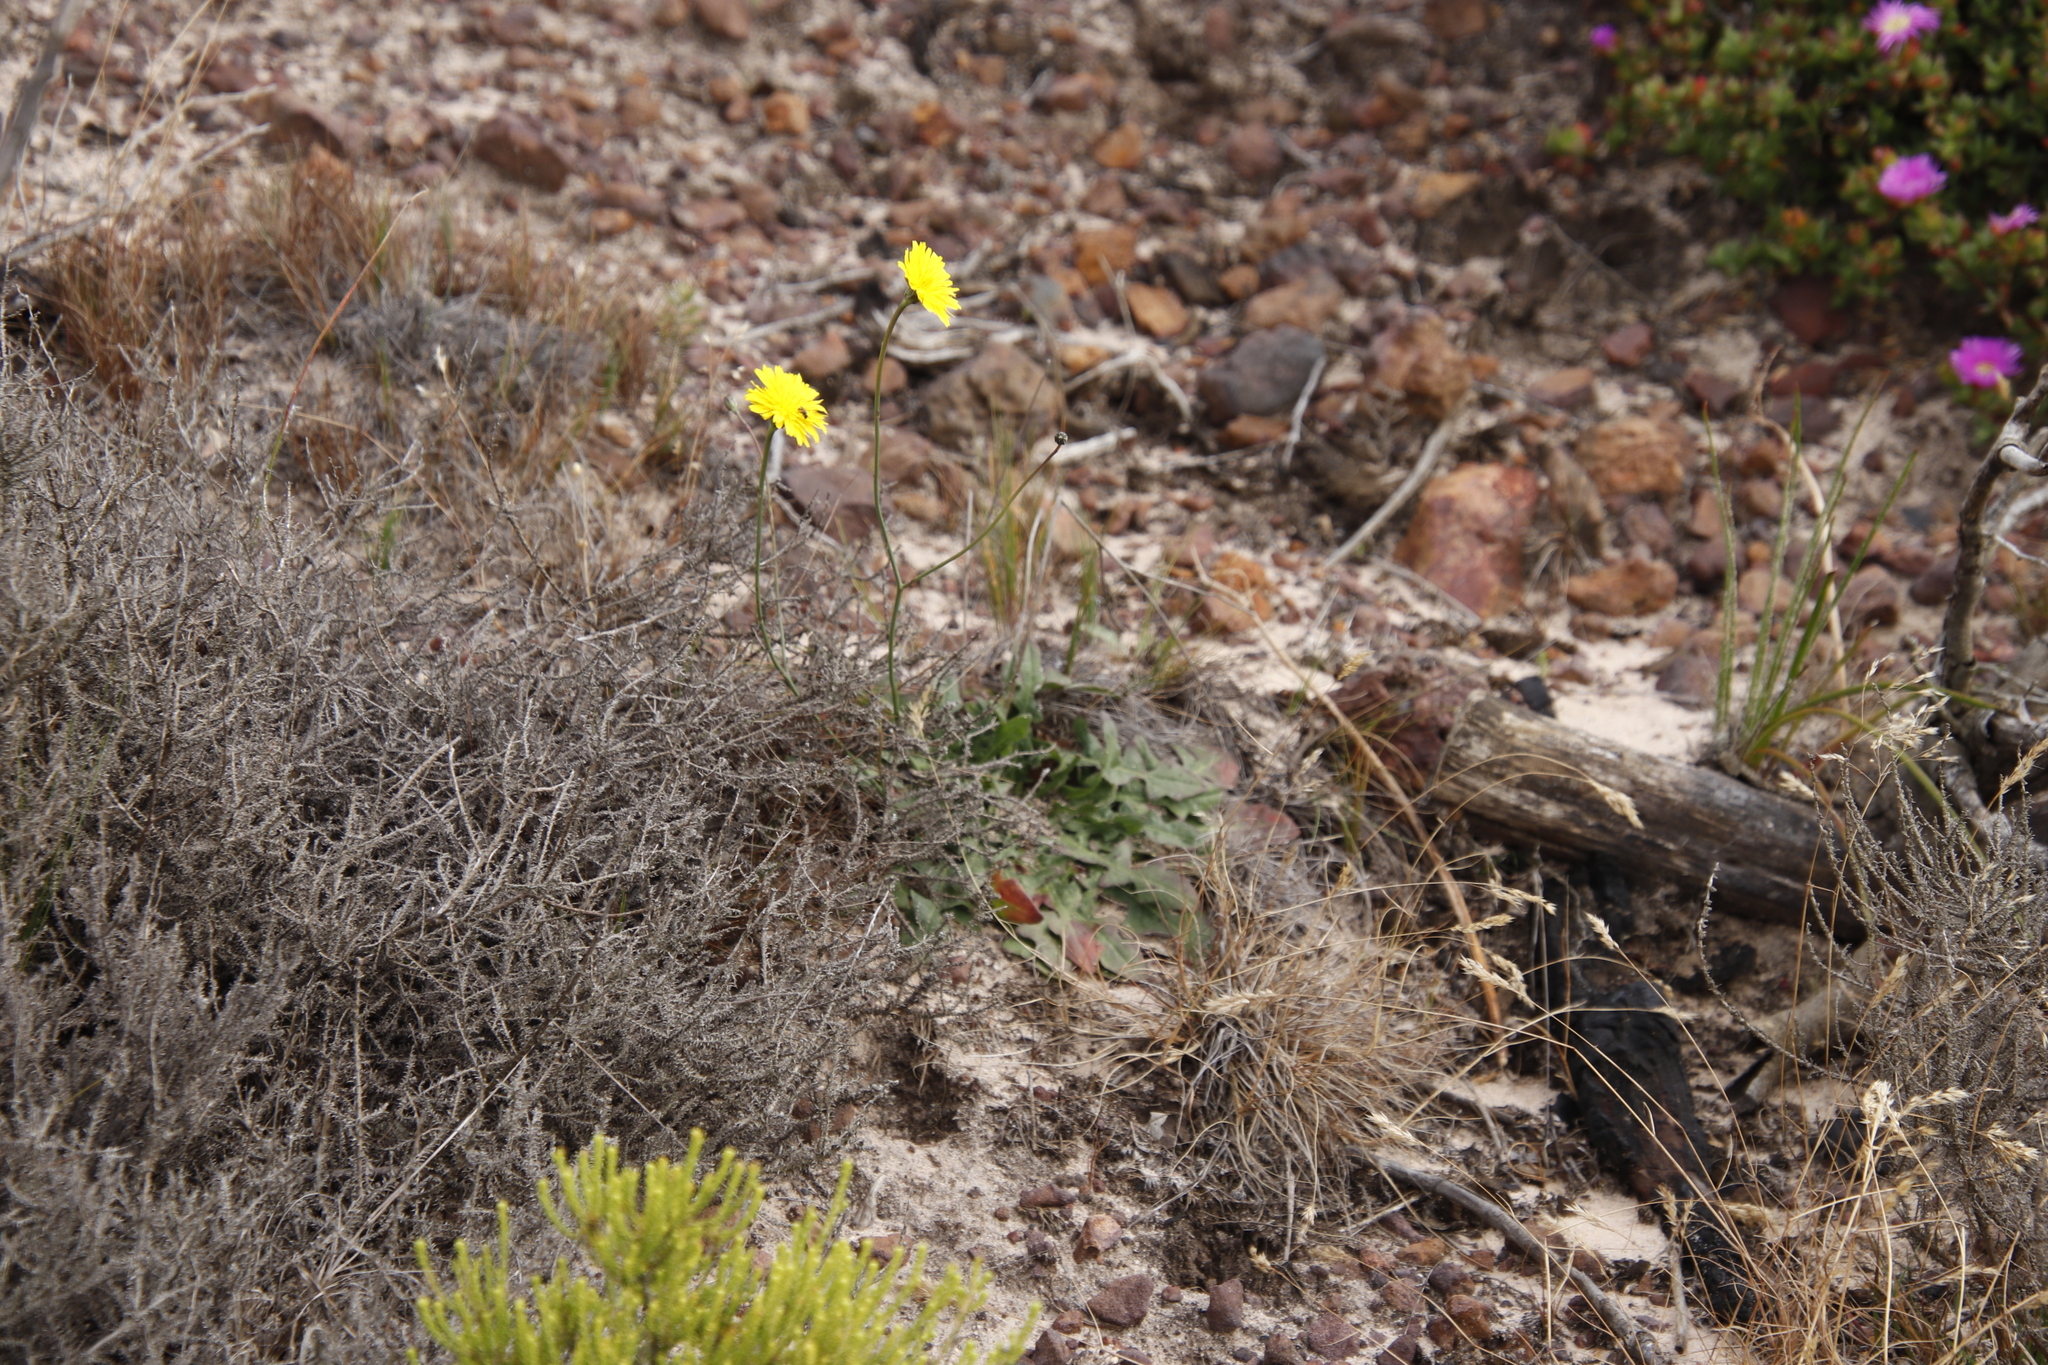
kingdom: Plantae
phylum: Tracheophyta
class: Magnoliopsida
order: Asterales
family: Asteraceae
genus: Hypochaeris
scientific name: Hypochaeris radicata
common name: Flatweed
